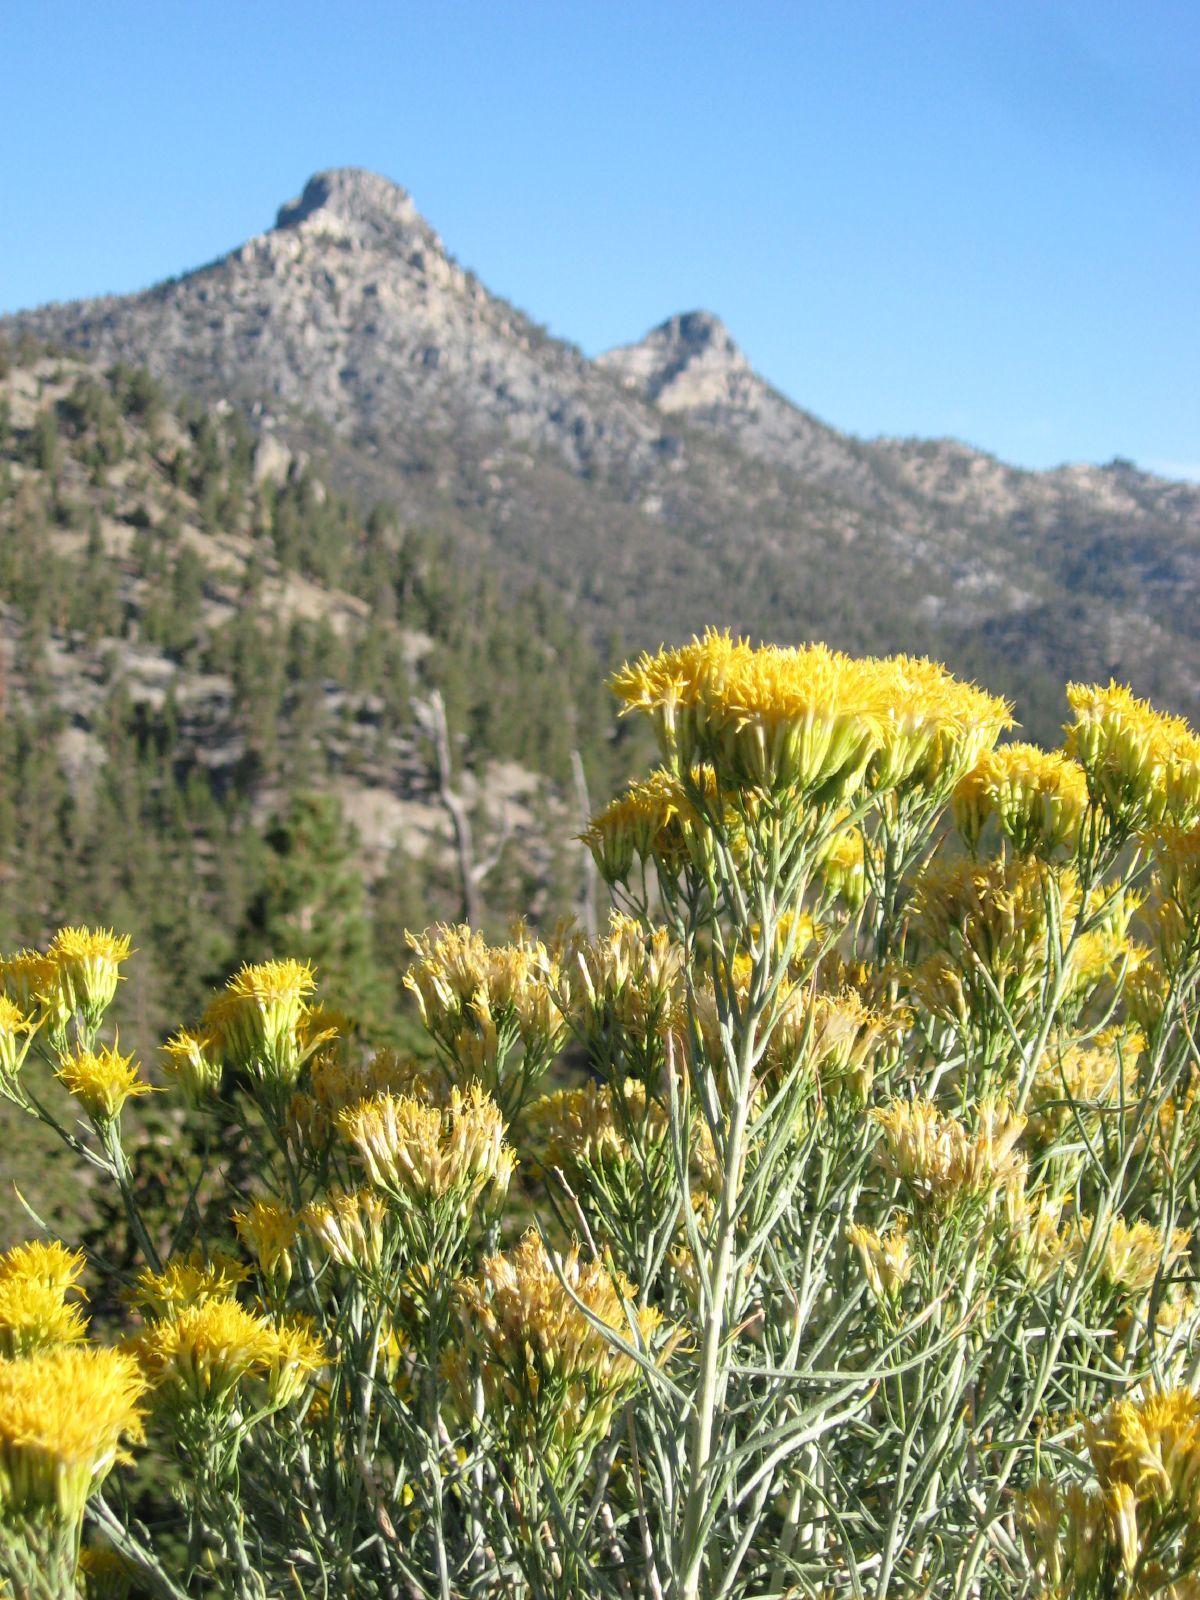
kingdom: Plantae
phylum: Tracheophyta
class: Magnoliopsida
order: Asterales
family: Asteraceae
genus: Ericameria
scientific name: Ericameria nauseosa
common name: Rubber rabbitbrush
